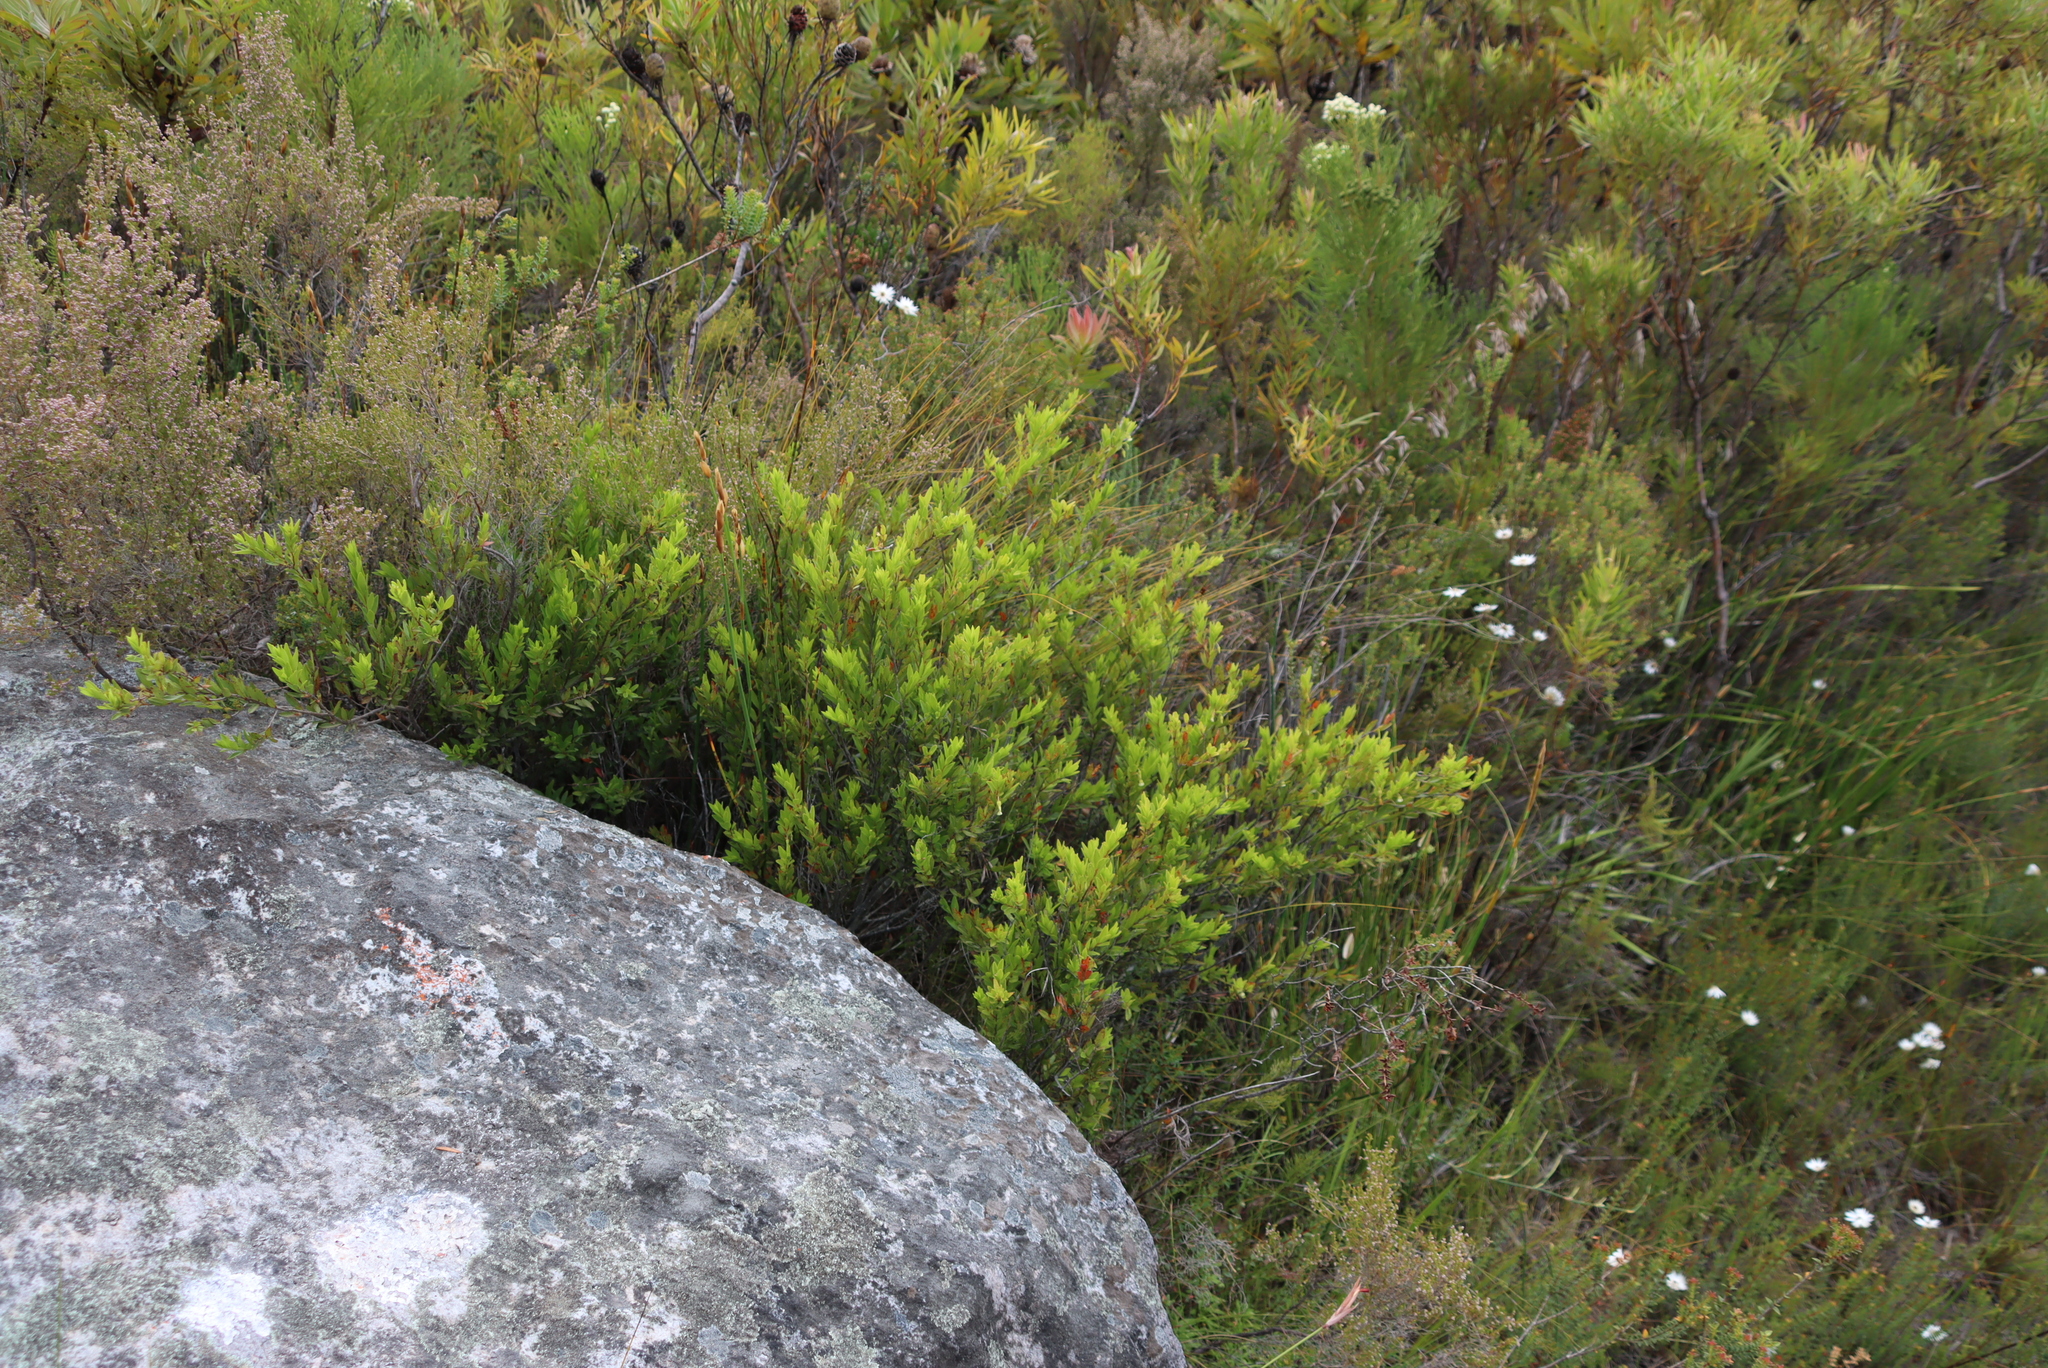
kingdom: Plantae
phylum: Tracheophyta
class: Magnoliopsida
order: Ericales
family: Ebenaceae
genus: Diospyros
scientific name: Diospyros glabra
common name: Fynbos star apple
